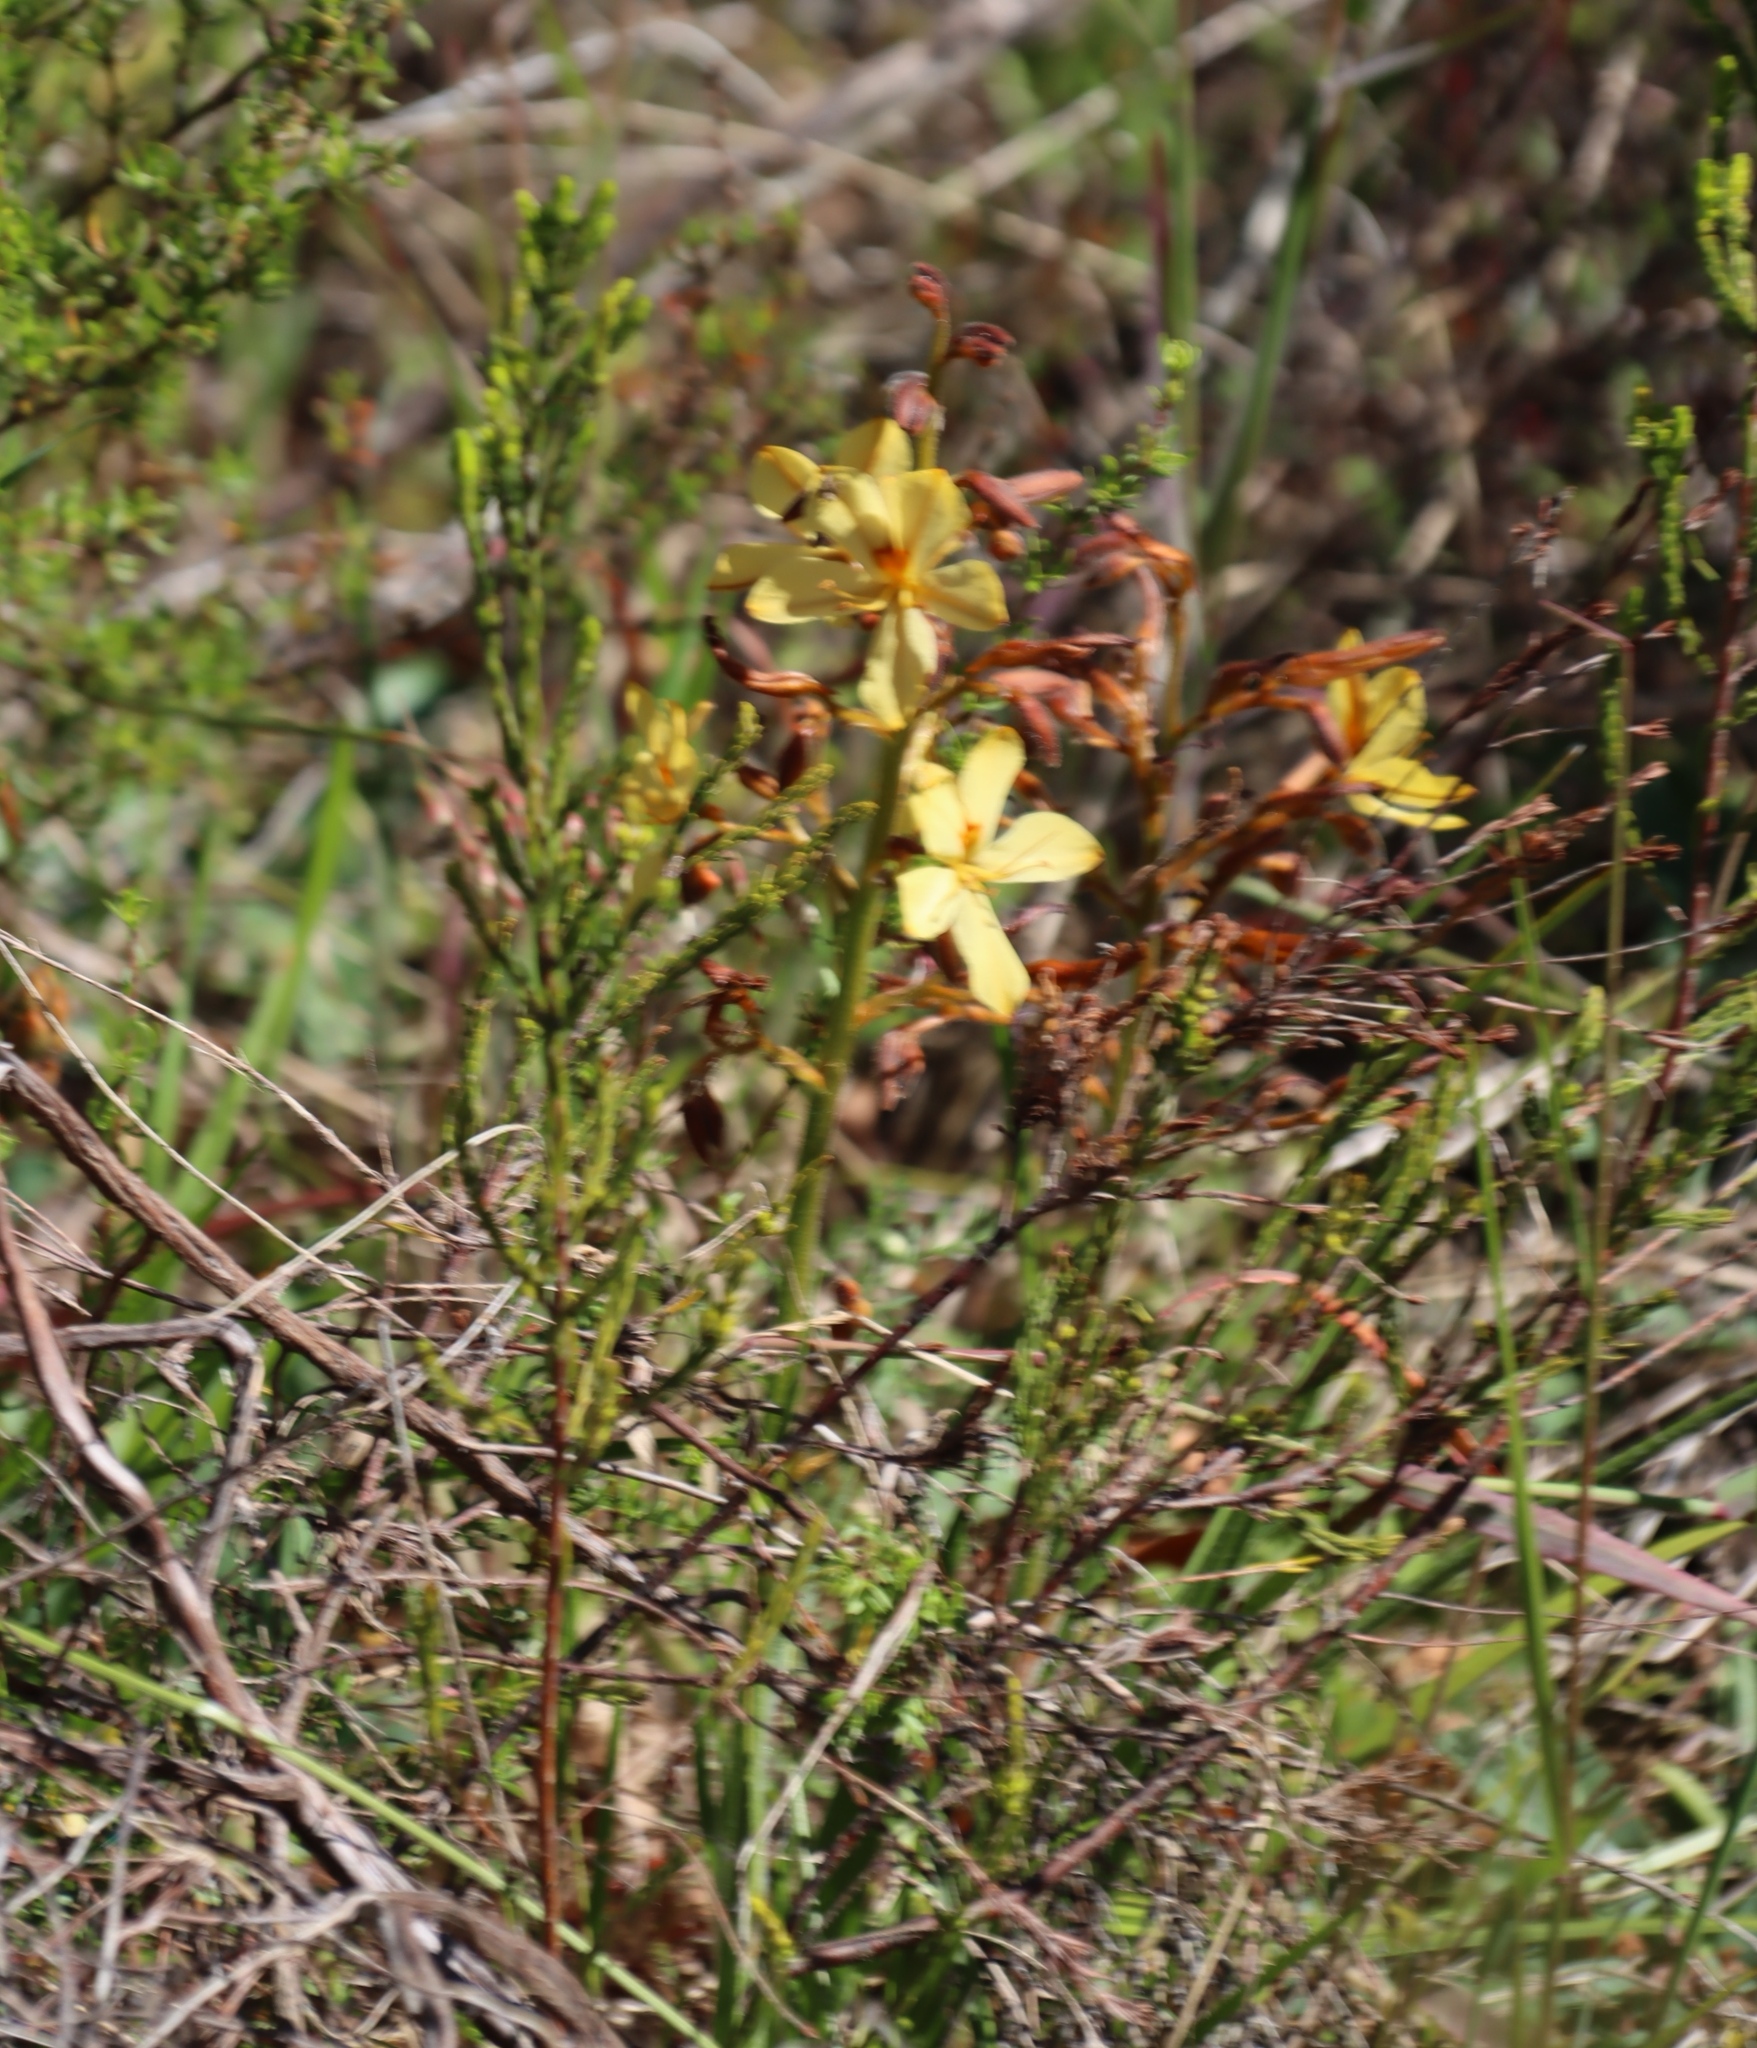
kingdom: Plantae
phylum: Tracheophyta
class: Liliopsida
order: Commelinales
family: Haemodoraceae
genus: Wachendorfia
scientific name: Wachendorfia paniculata
